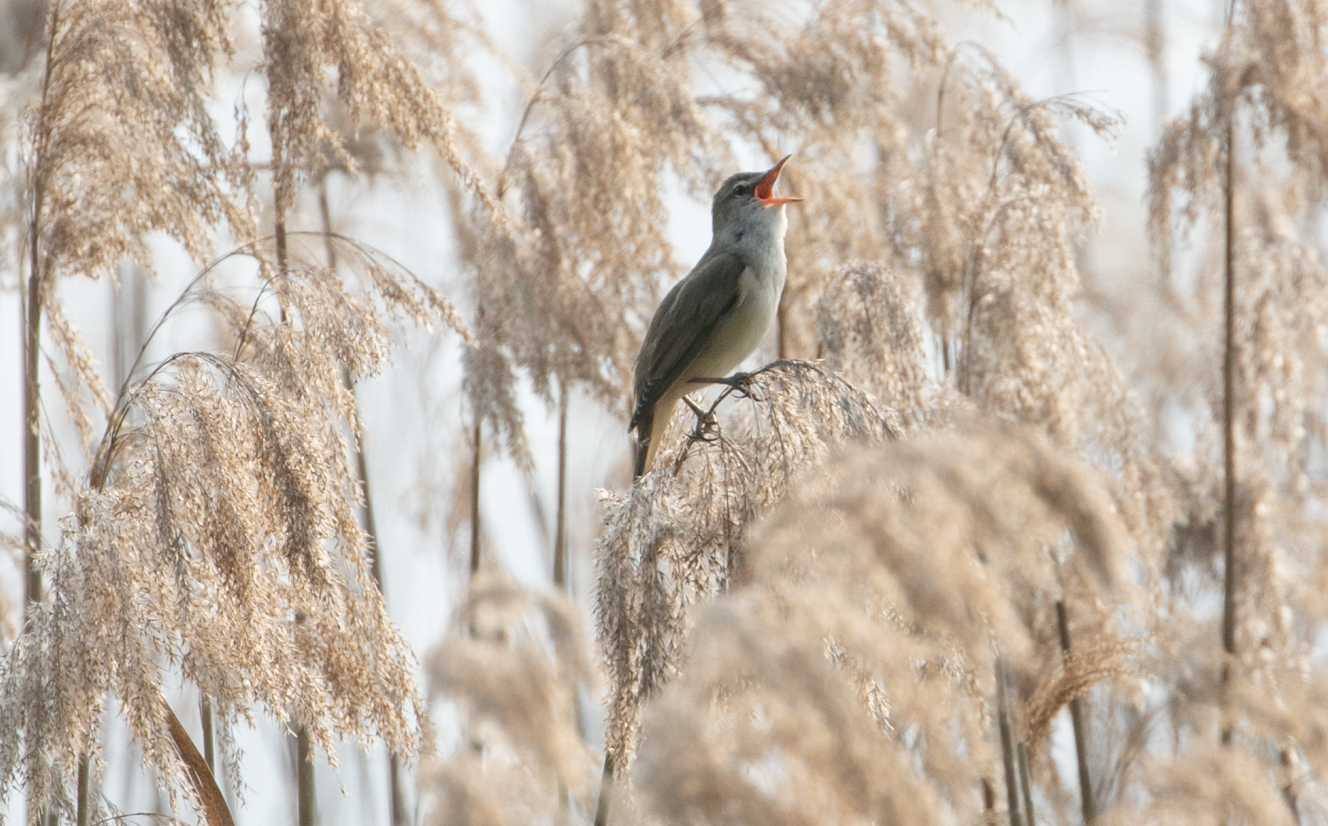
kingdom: Animalia
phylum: Chordata
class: Aves
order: Passeriformes
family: Acrocephalidae
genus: Acrocephalus
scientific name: Acrocephalus arundinaceus
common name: Great reed warbler
